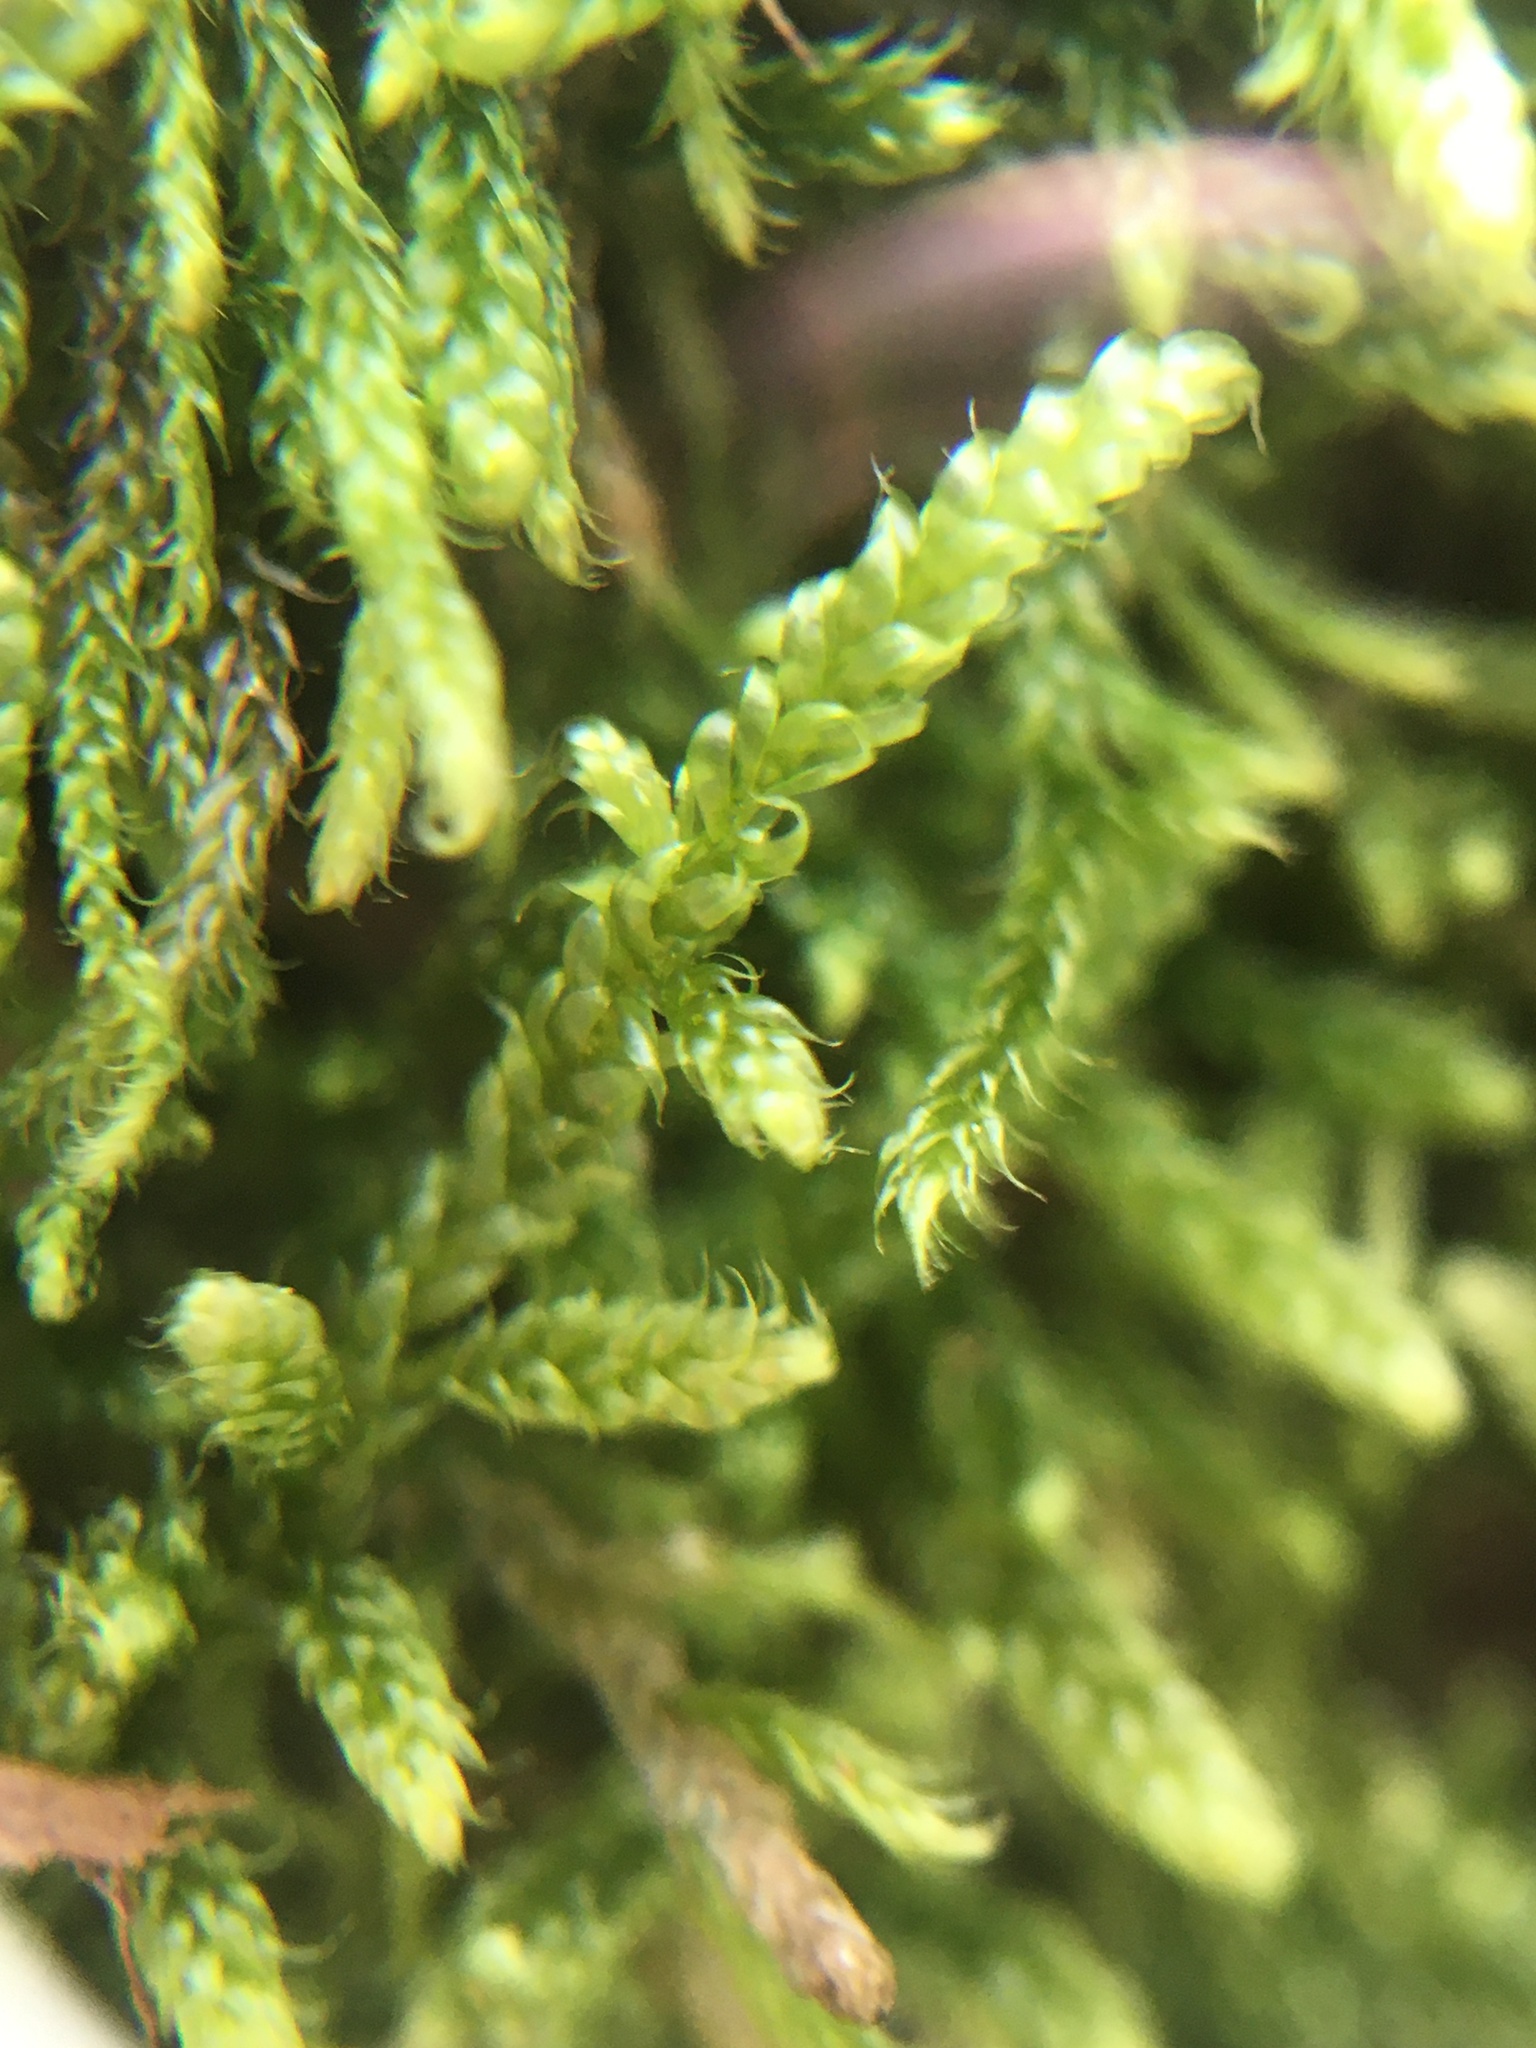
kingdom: Plantae
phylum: Bryophyta
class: Bryopsida
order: Hypnales
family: Hypnaceae
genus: Hypnum
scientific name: Hypnum cupressiforme
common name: Cypress-leaved plait-moss
